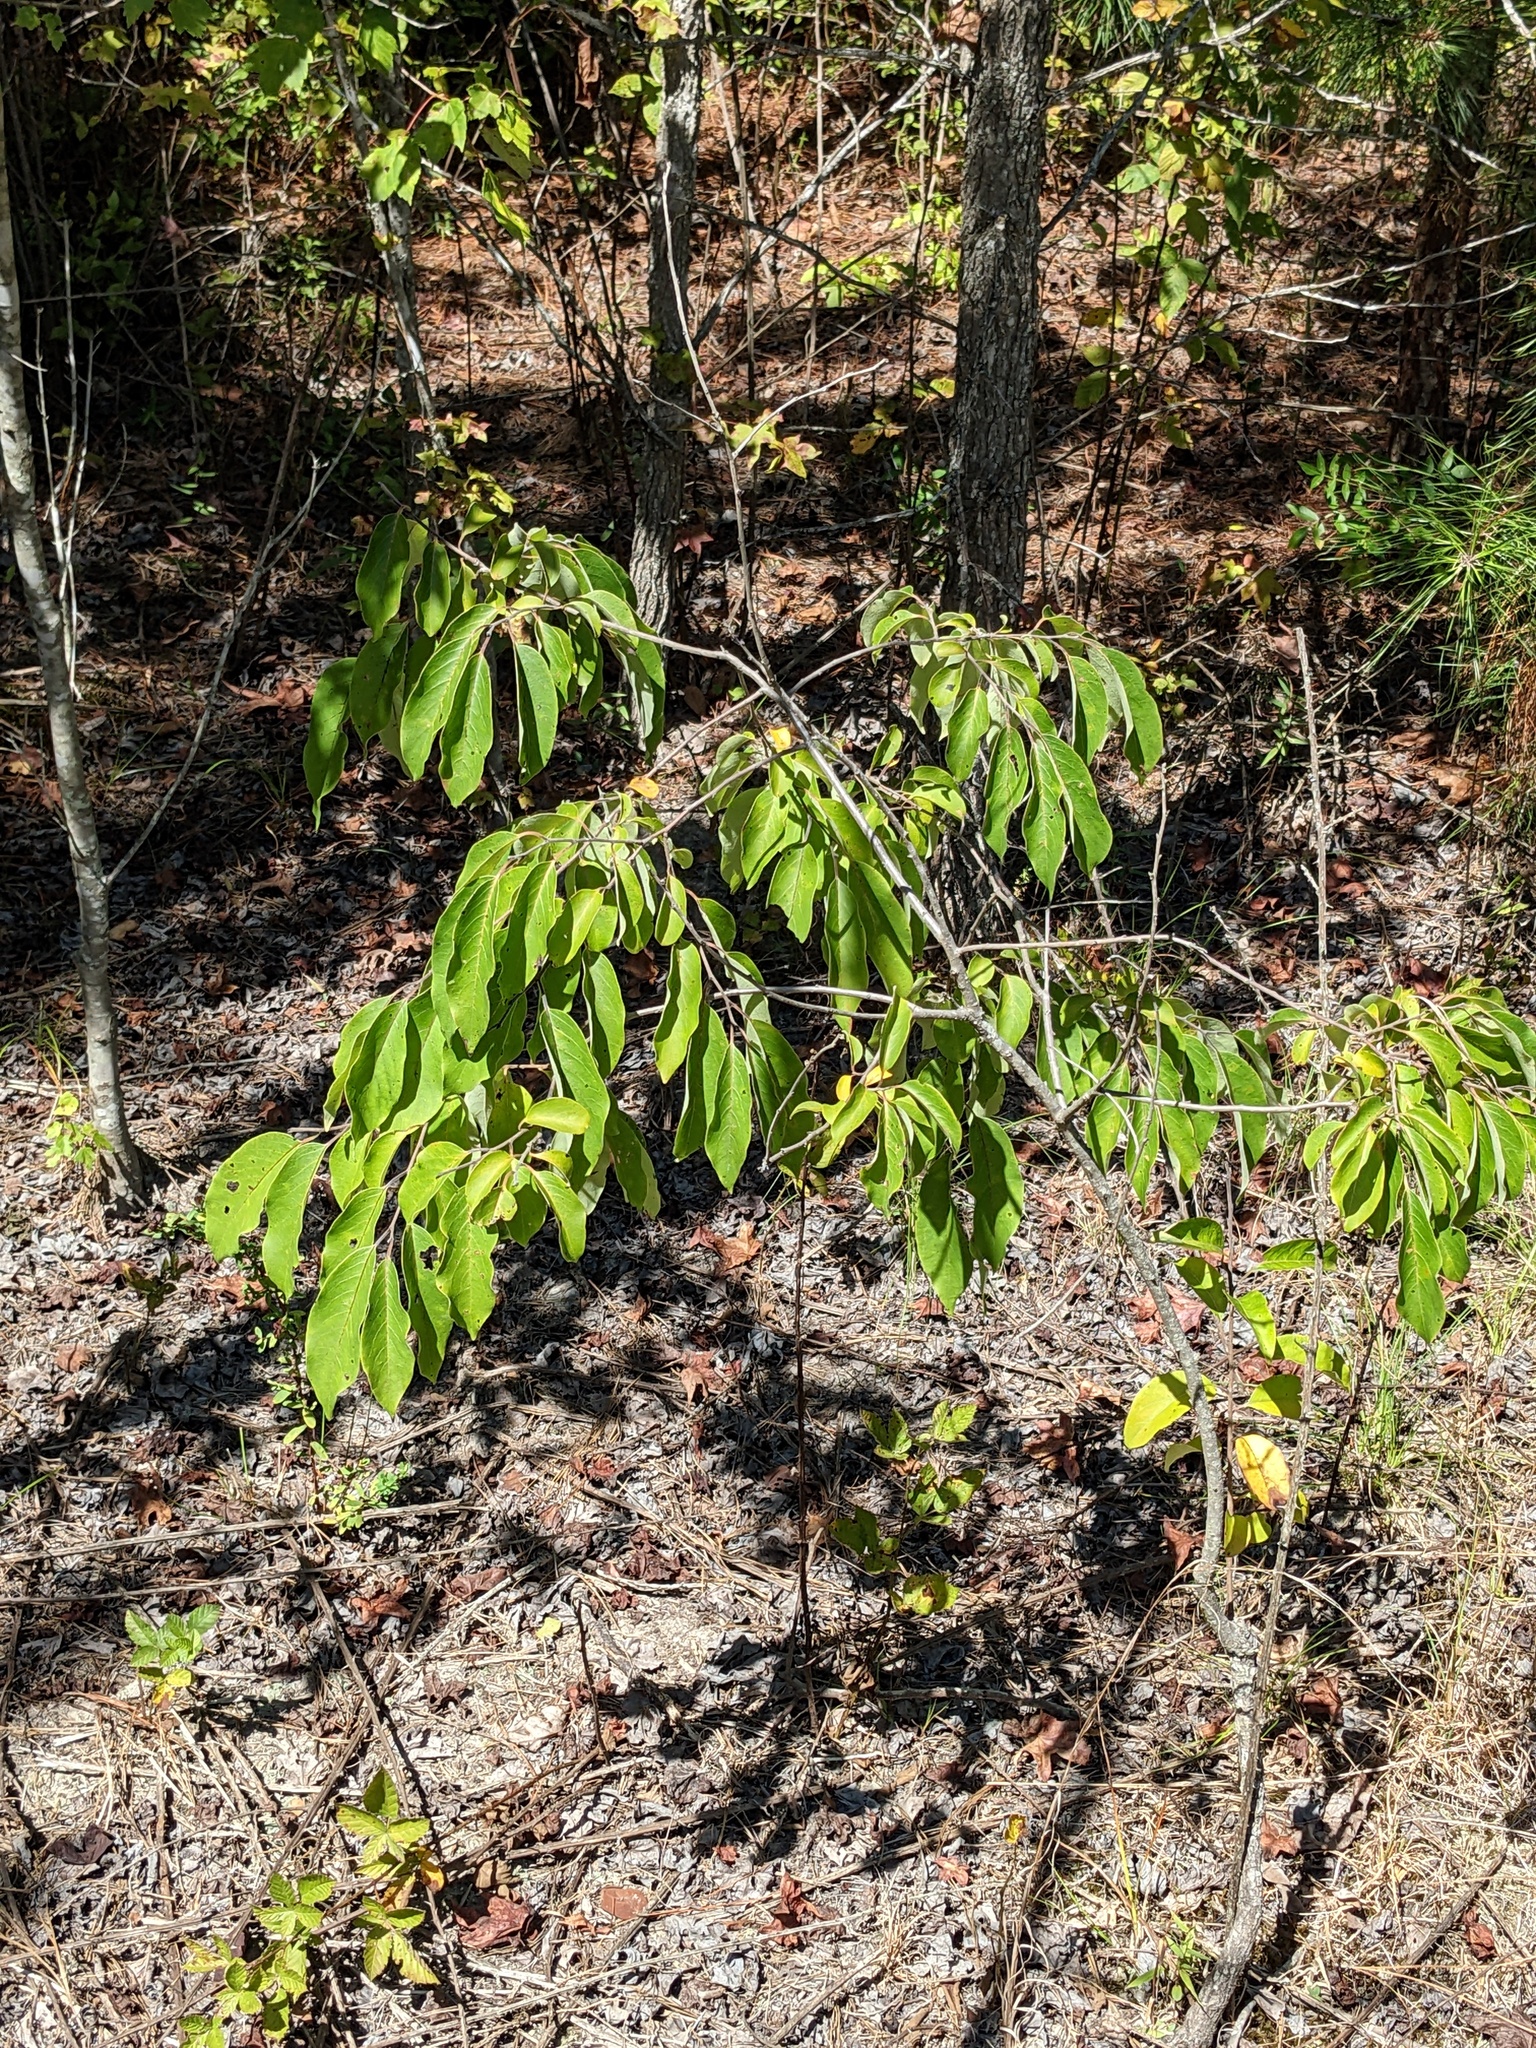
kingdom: Plantae
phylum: Tracheophyta
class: Magnoliopsida
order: Ericales
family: Ebenaceae
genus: Diospyros
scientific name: Diospyros virginiana
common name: Persimmon
